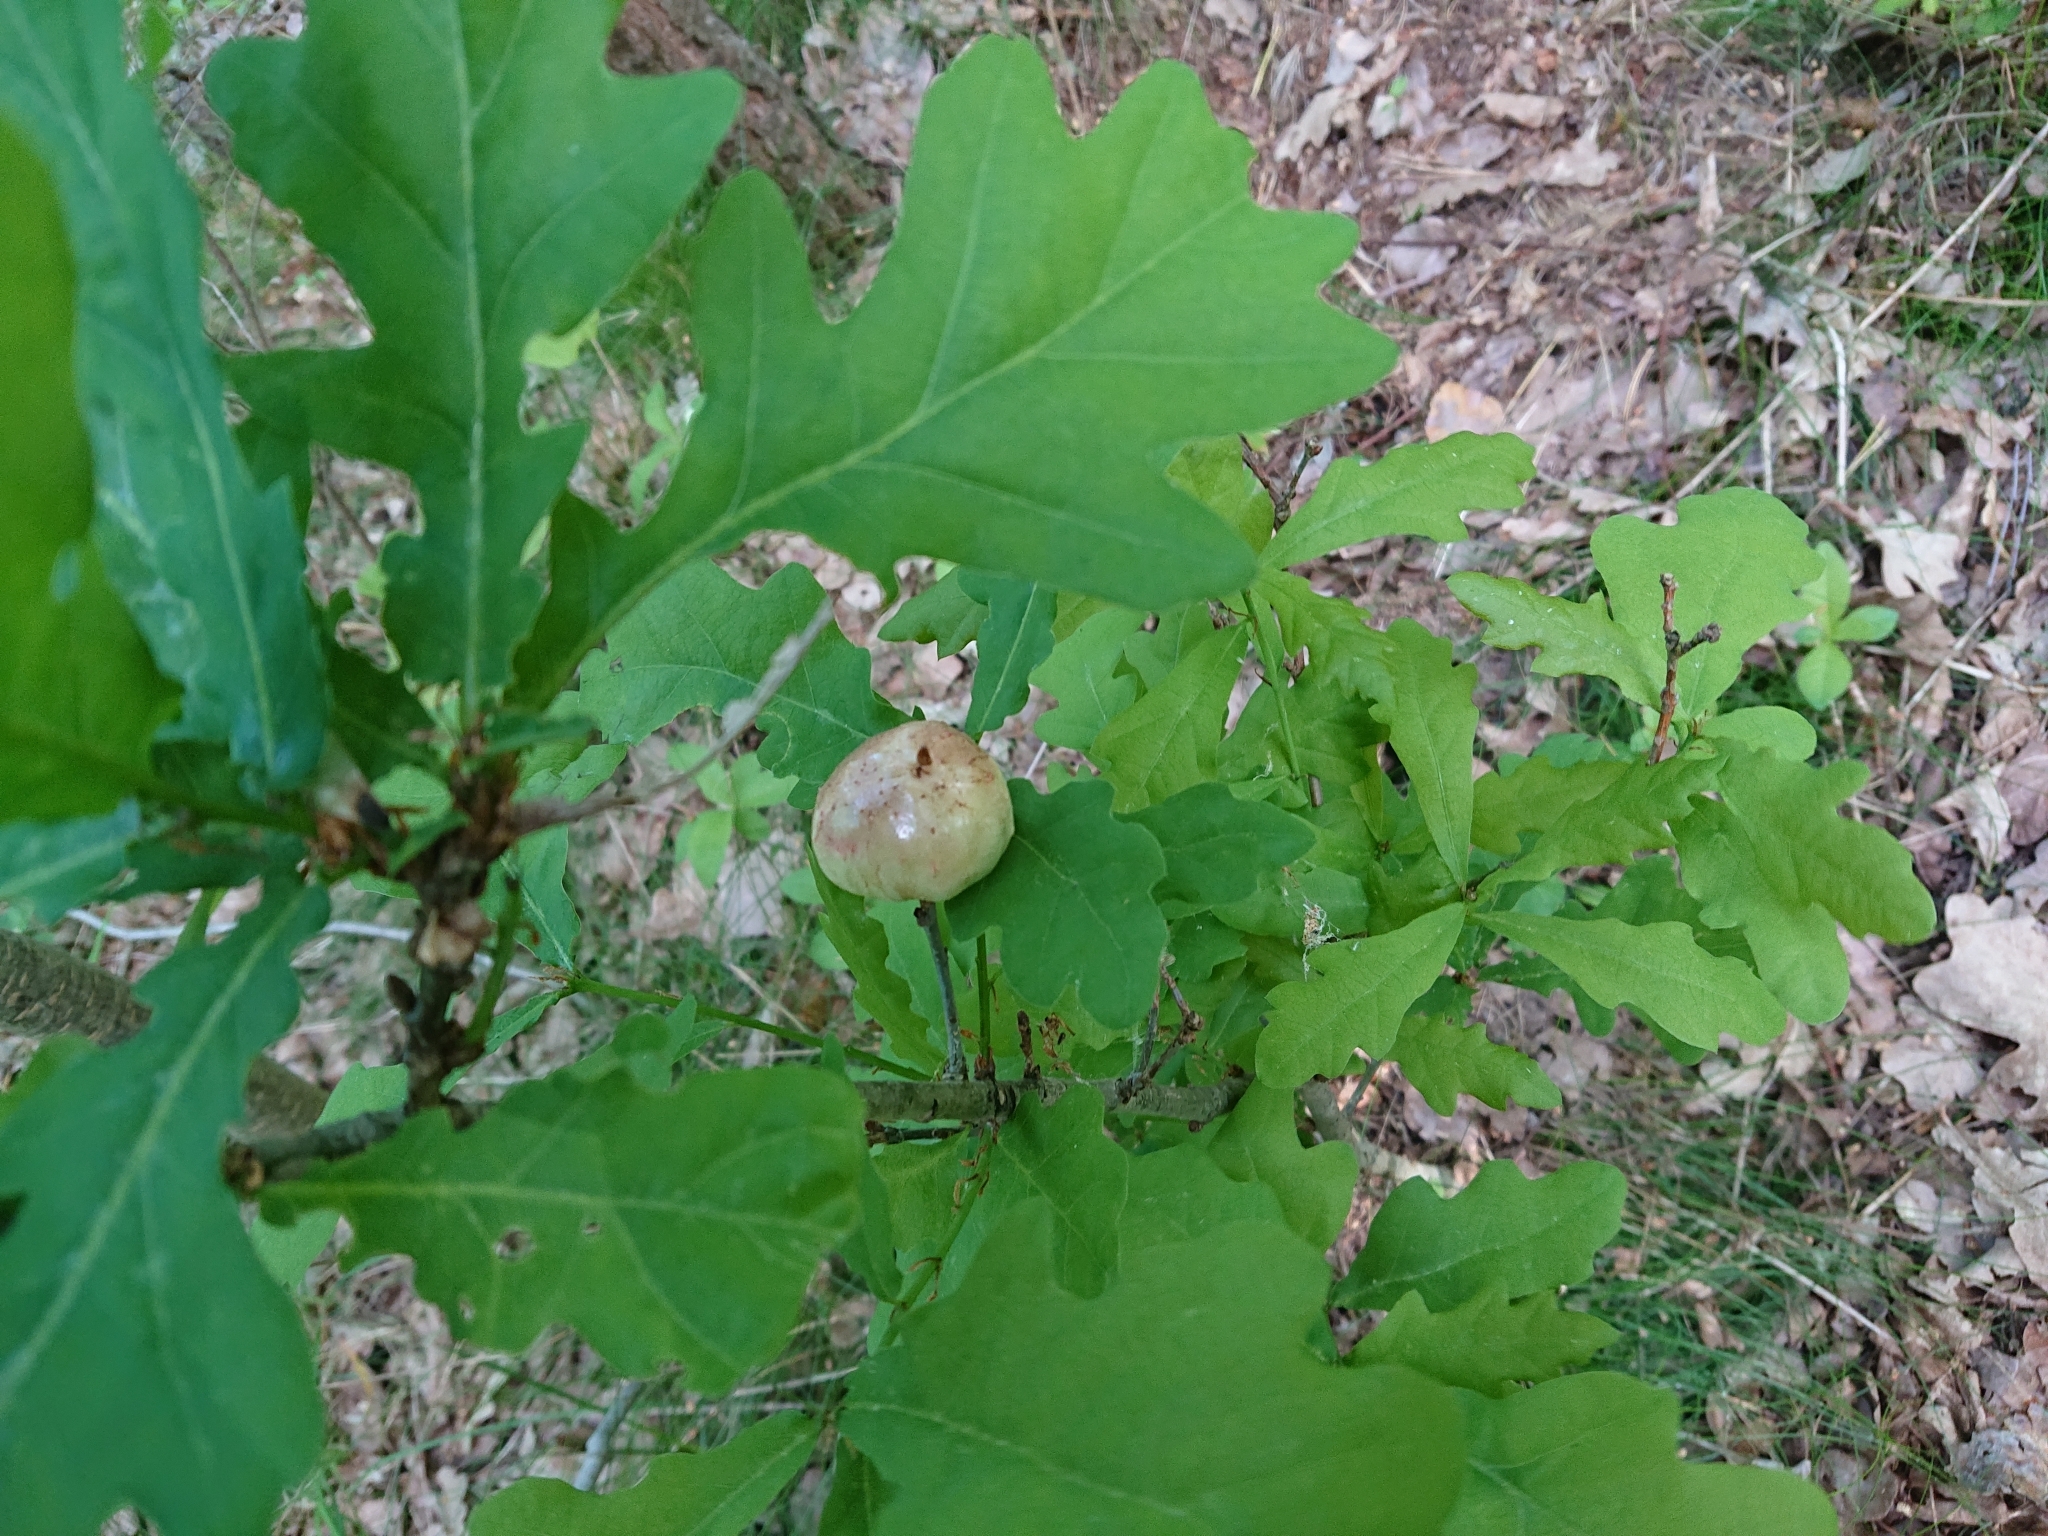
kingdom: Animalia
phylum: Arthropoda
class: Insecta
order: Hymenoptera
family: Cynipidae
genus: Biorhiza
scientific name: Biorhiza pallida
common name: Oak apple
